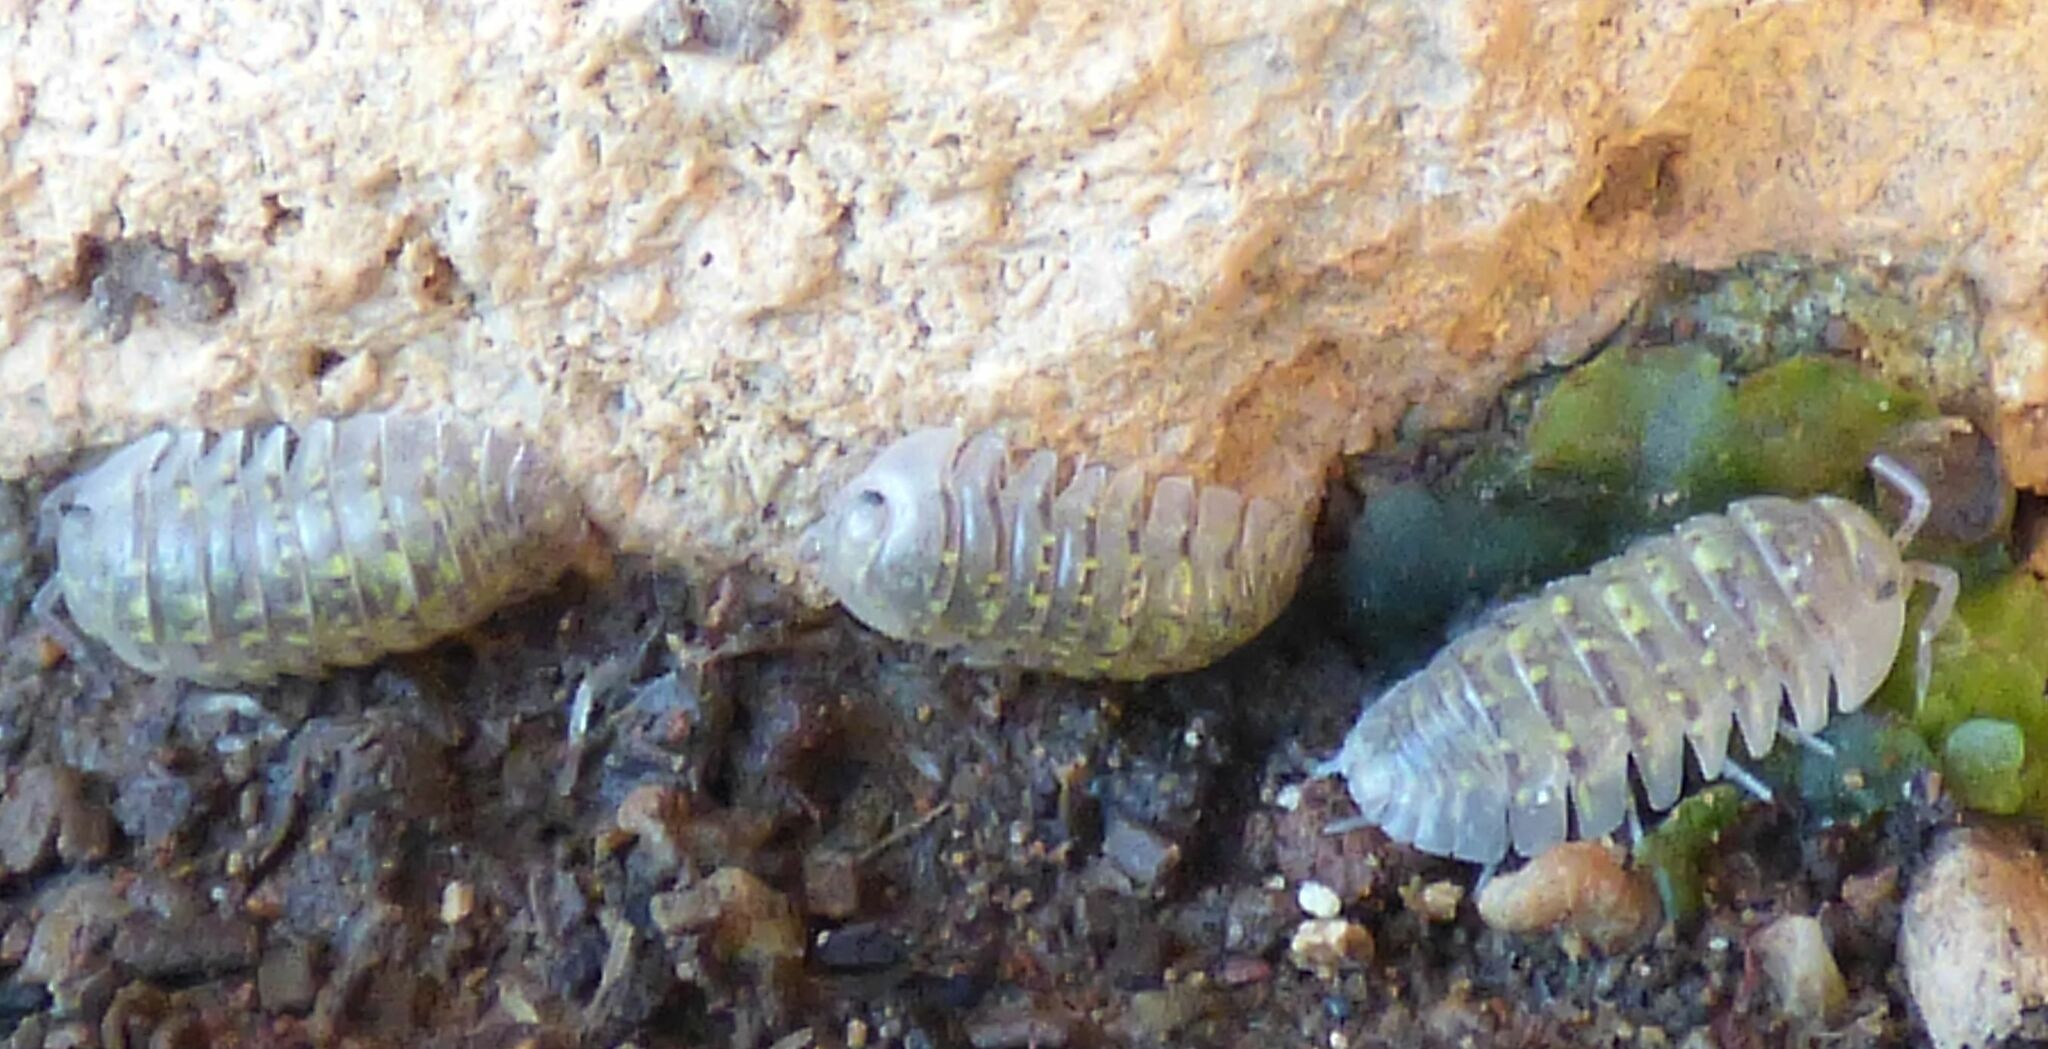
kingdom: Animalia
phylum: Arthropoda
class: Malacostraca
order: Isopoda
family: Armadillidiidae
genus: Armadillidium
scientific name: Armadillidium ameglioi
